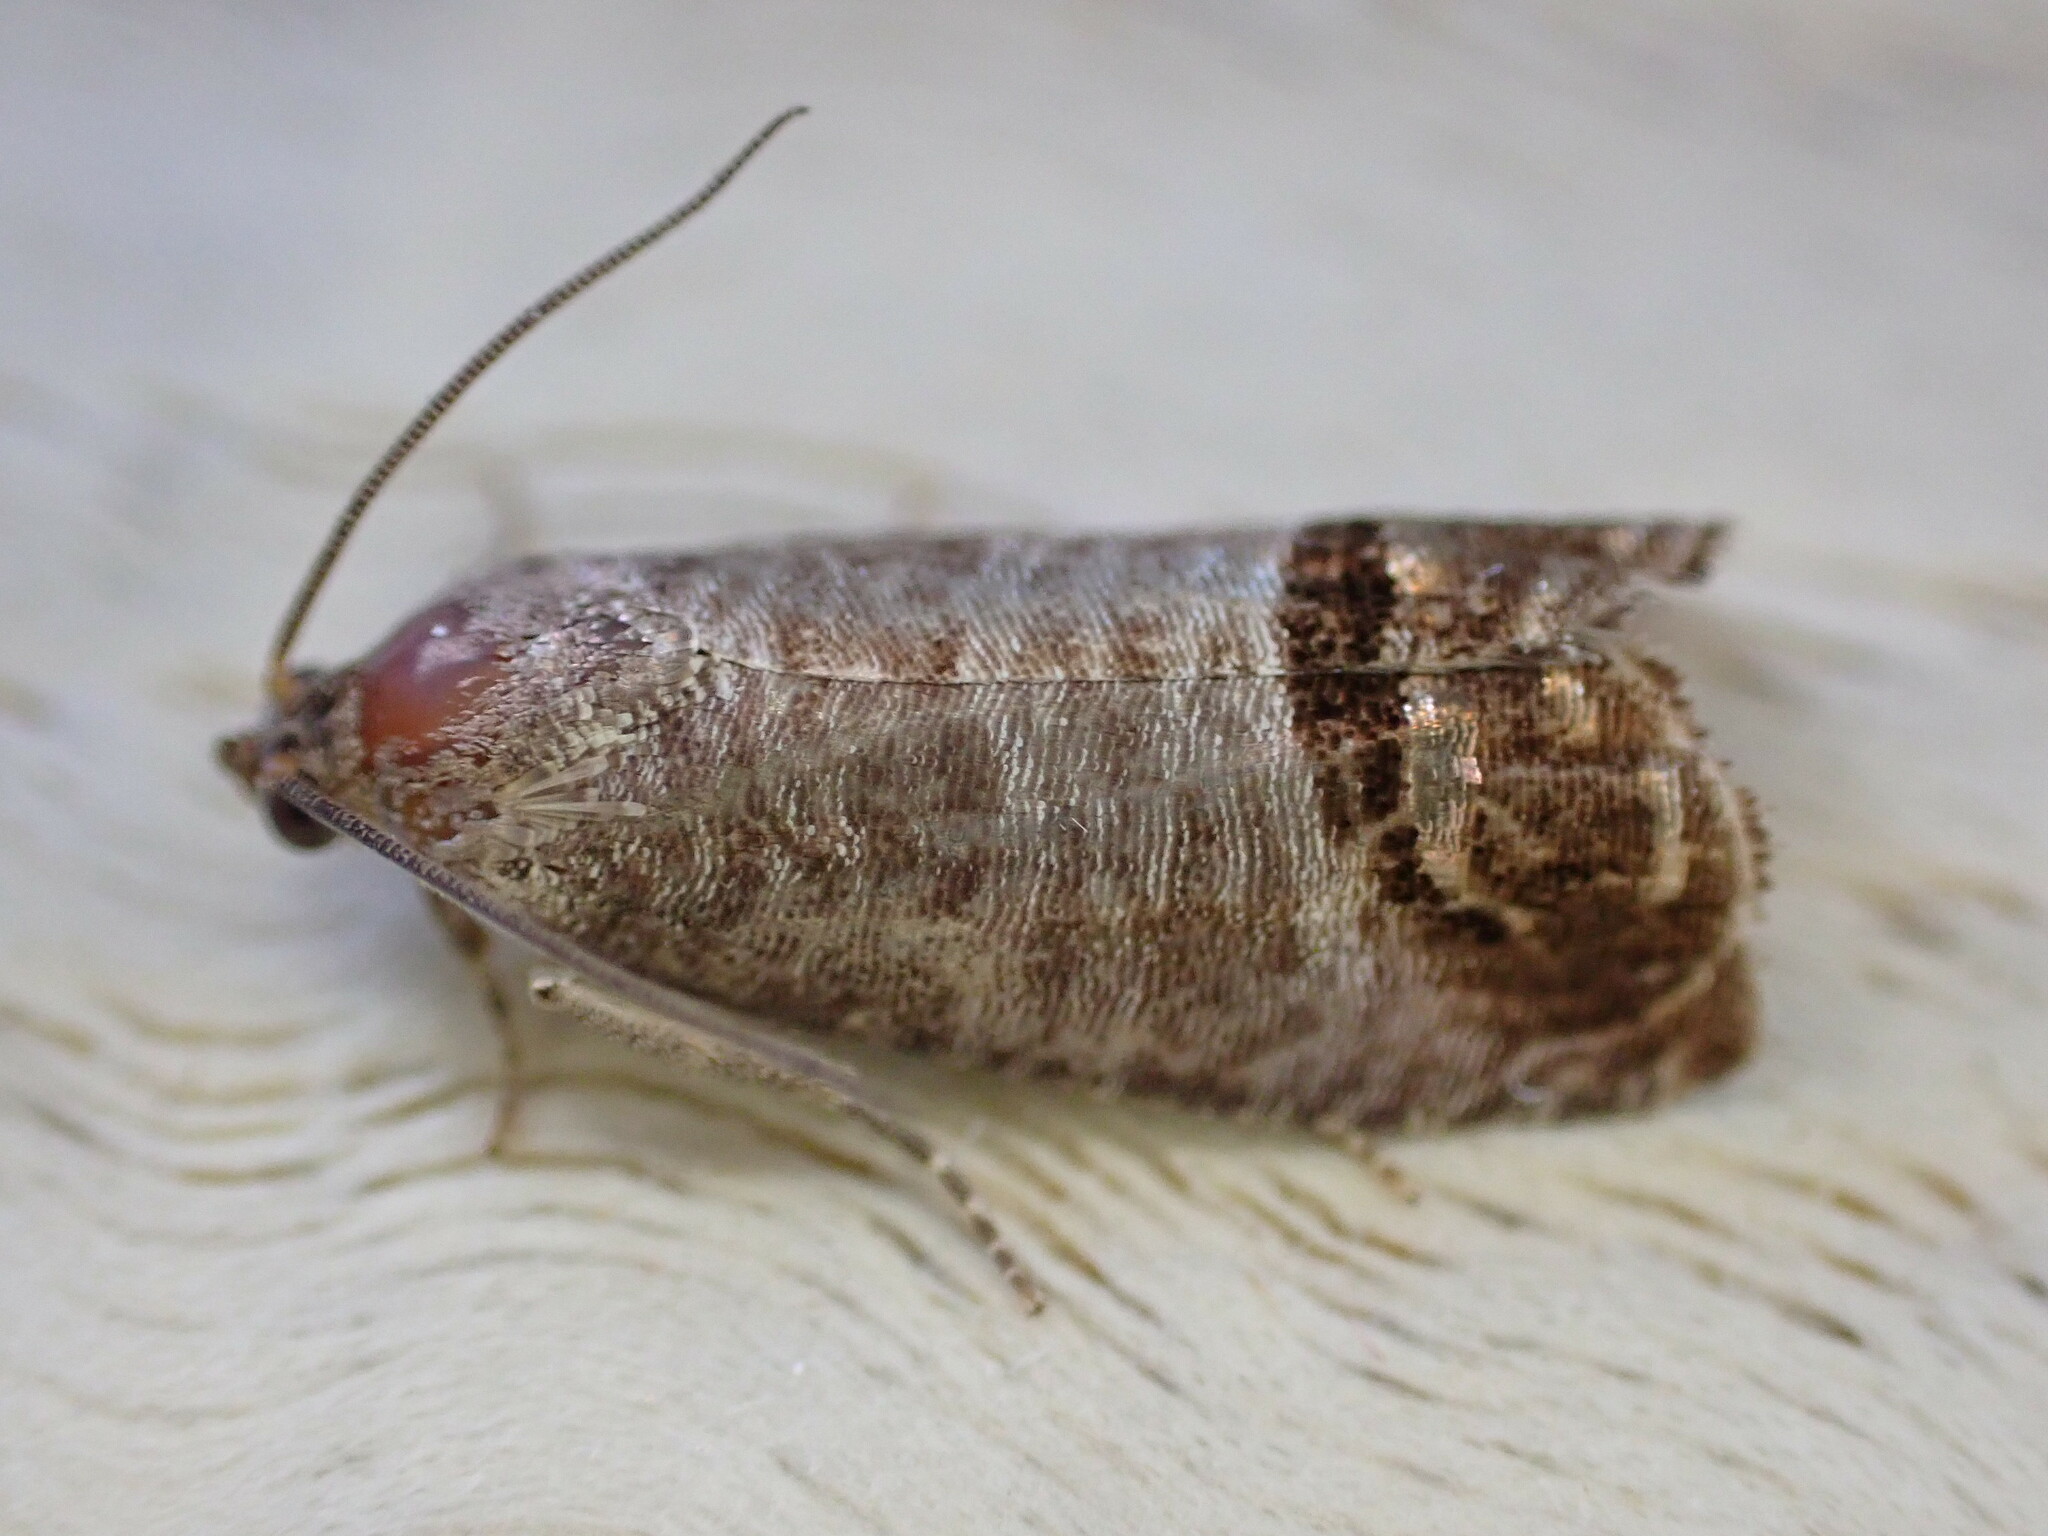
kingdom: Animalia
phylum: Arthropoda
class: Insecta
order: Lepidoptera
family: Tortricidae
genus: Cydia
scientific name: Cydia pomonella
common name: Codling moth
